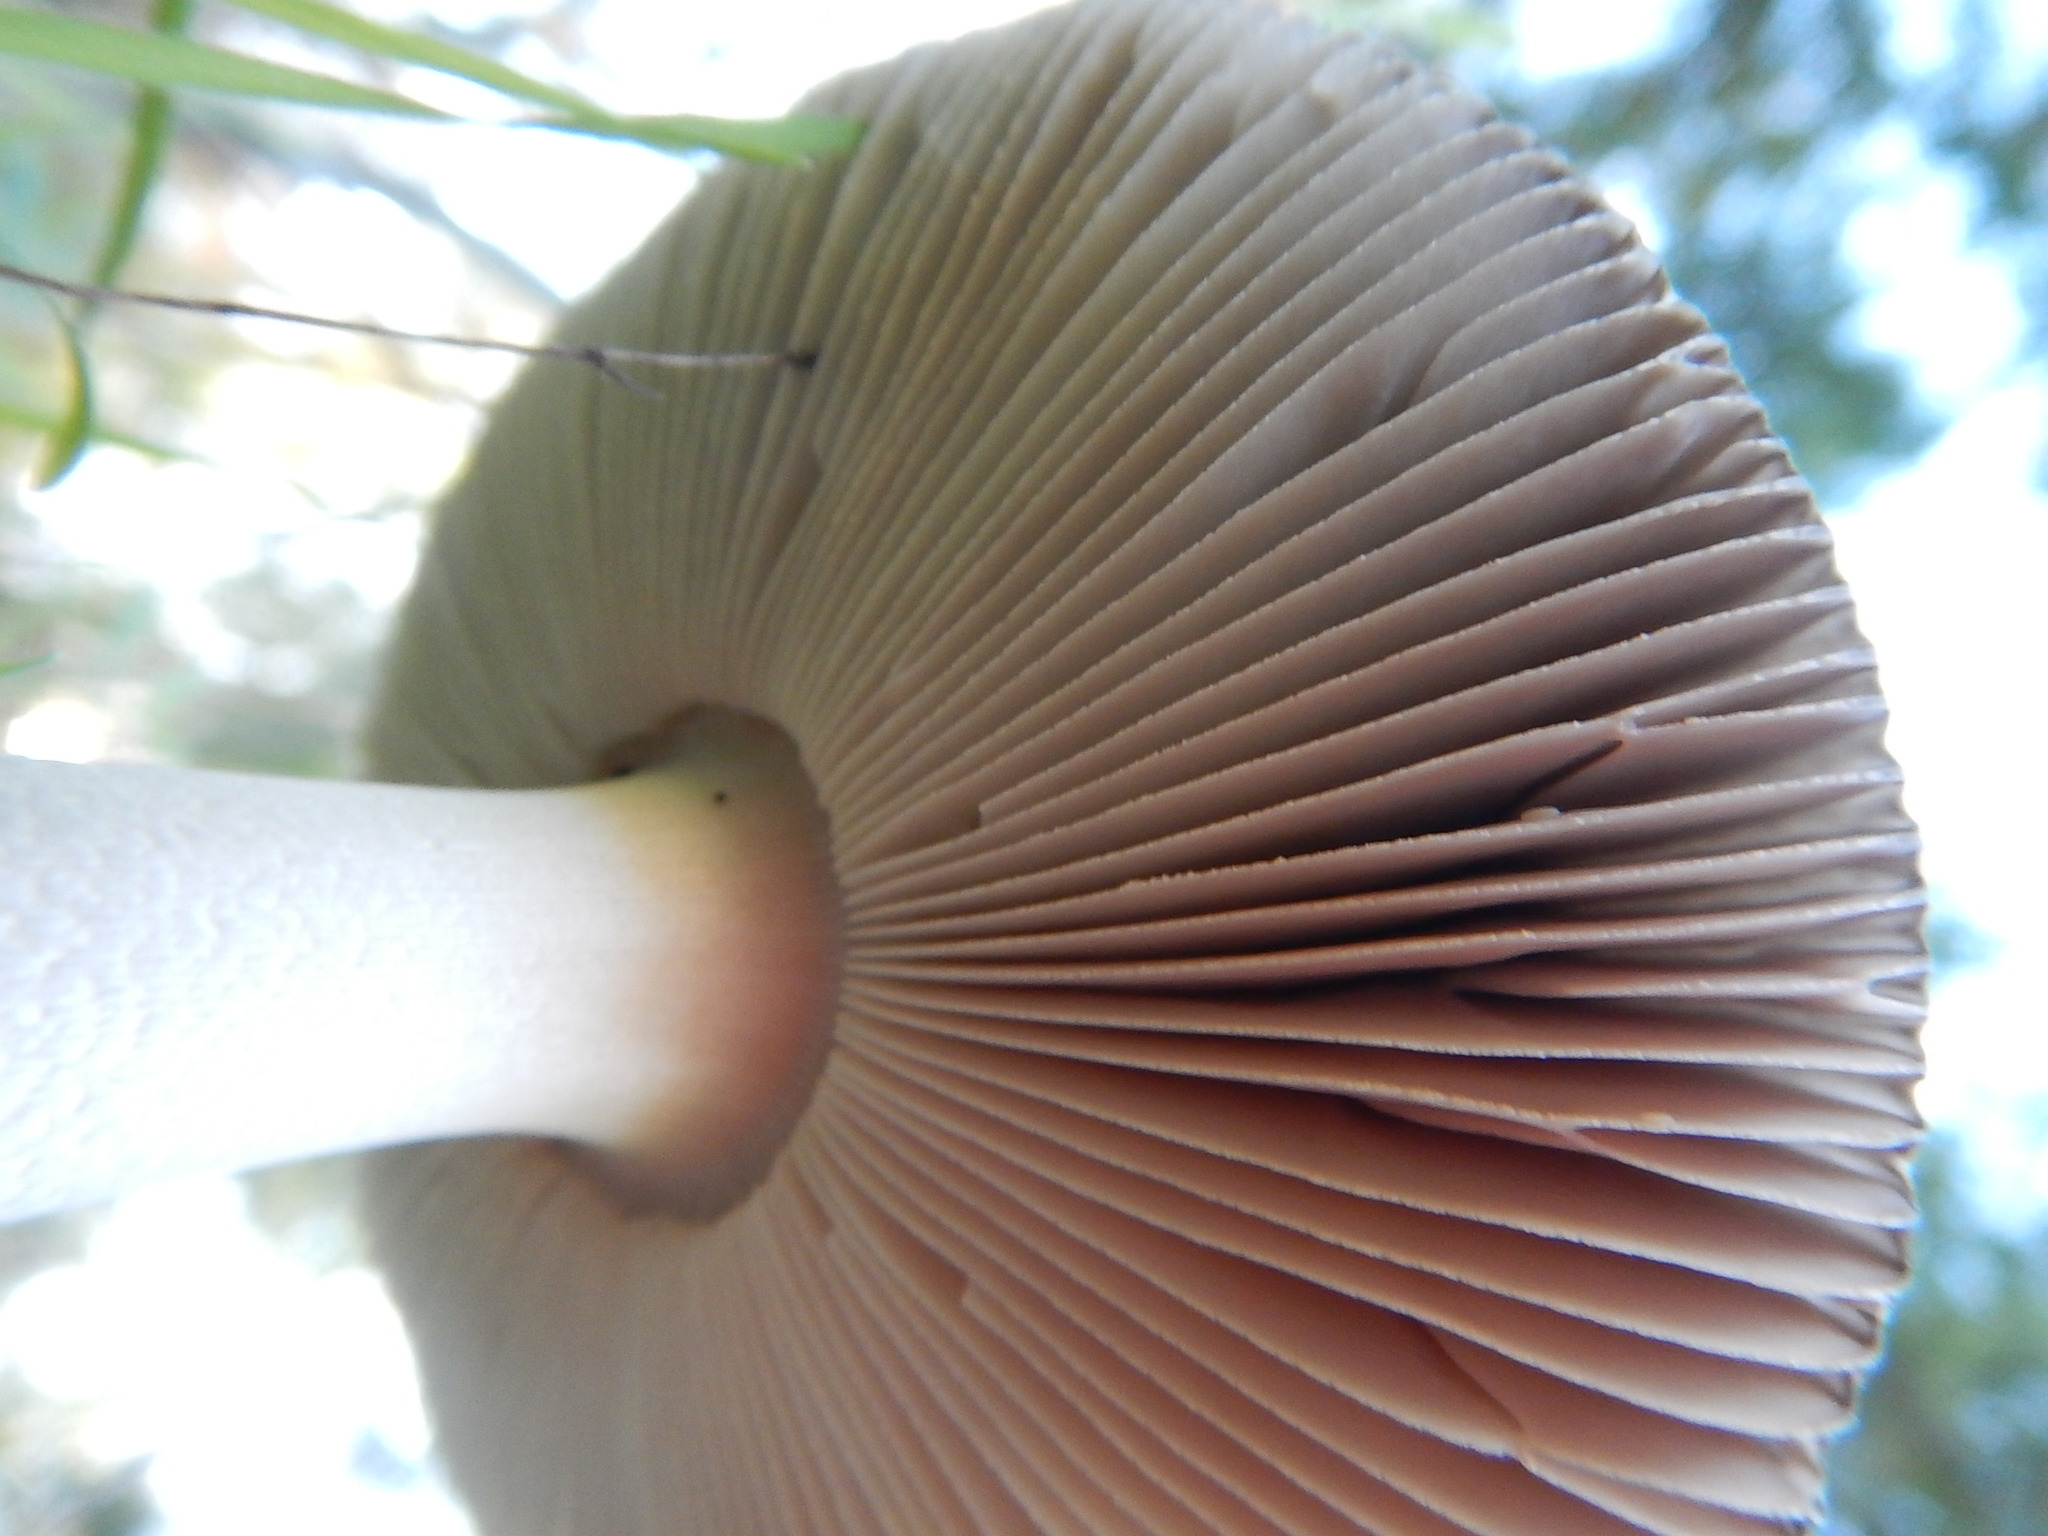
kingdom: Fungi
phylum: Basidiomycota
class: Agaricomycetes
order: Agaricales
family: Amanitaceae
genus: Amanita
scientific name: Amanita constricta
